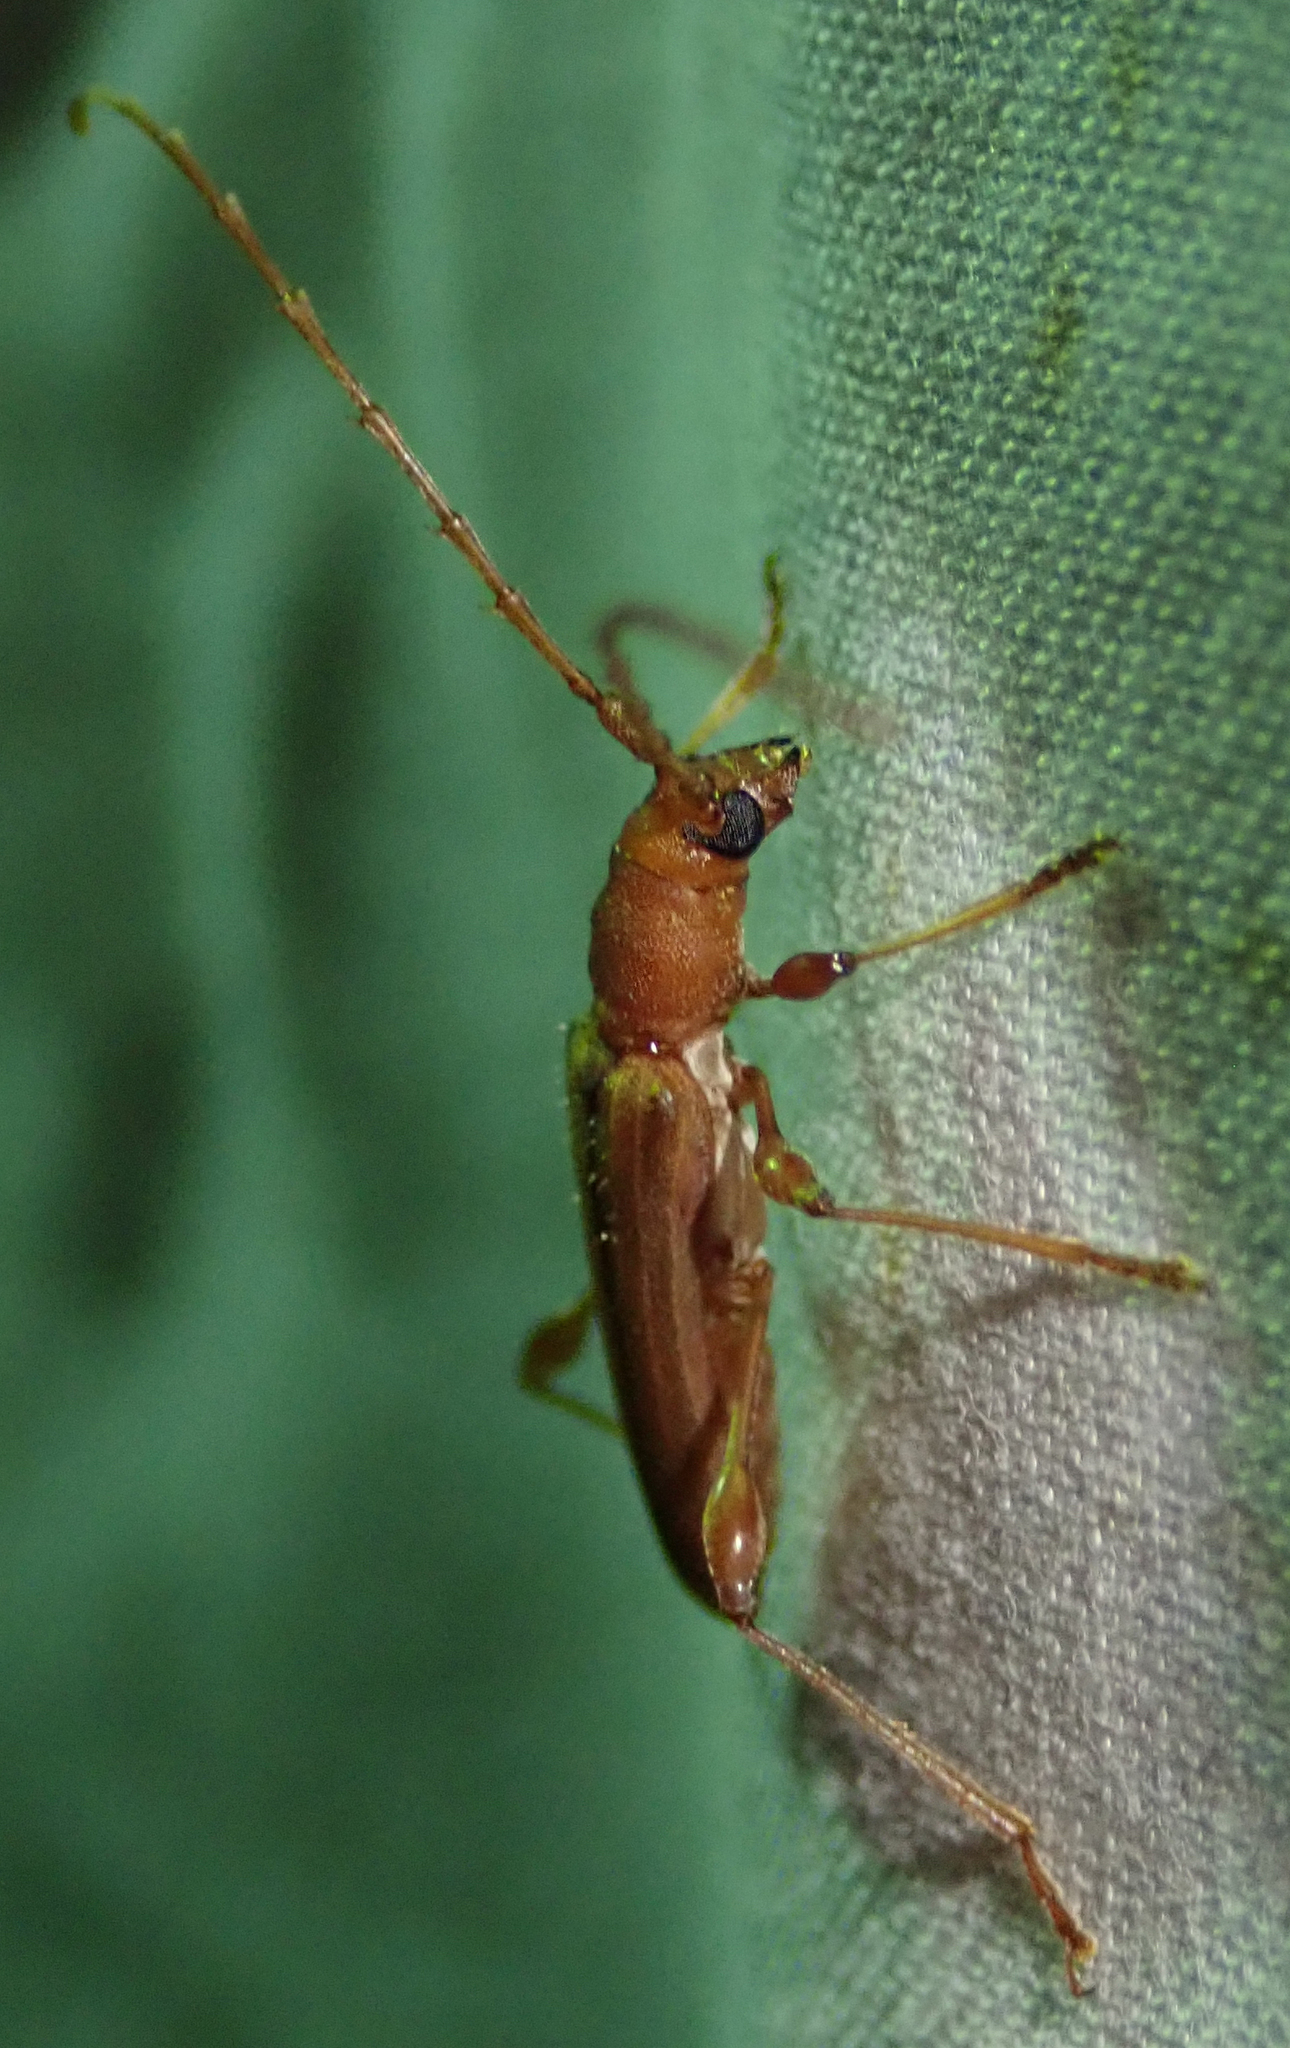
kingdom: Animalia
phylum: Arthropoda
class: Insecta
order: Coleoptera
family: Cerambycidae
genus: Cordylomera
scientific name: Cordylomera karschi
